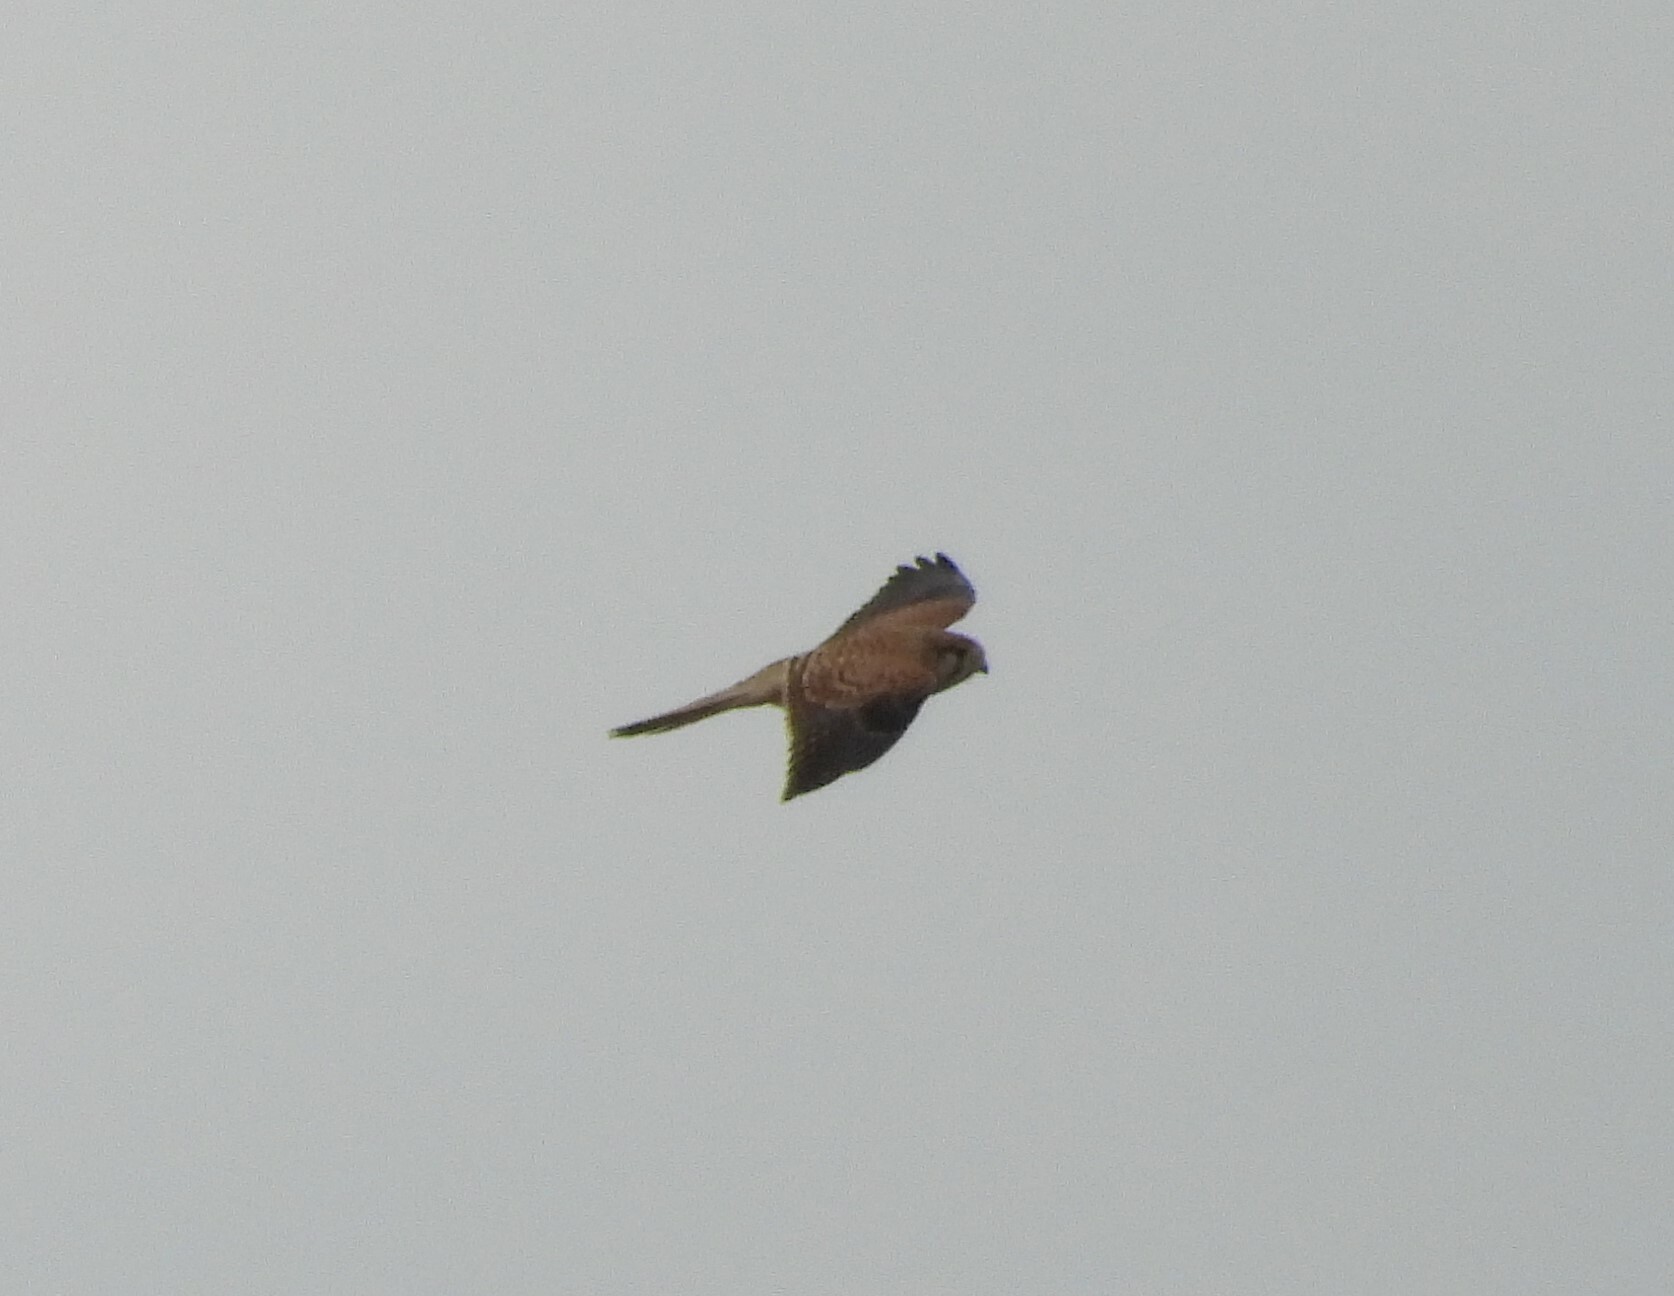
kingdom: Animalia
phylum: Chordata
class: Aves
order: Falconiformes
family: Falconidae
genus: Falco
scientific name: Falco tinnunculus
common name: Common kestrel
